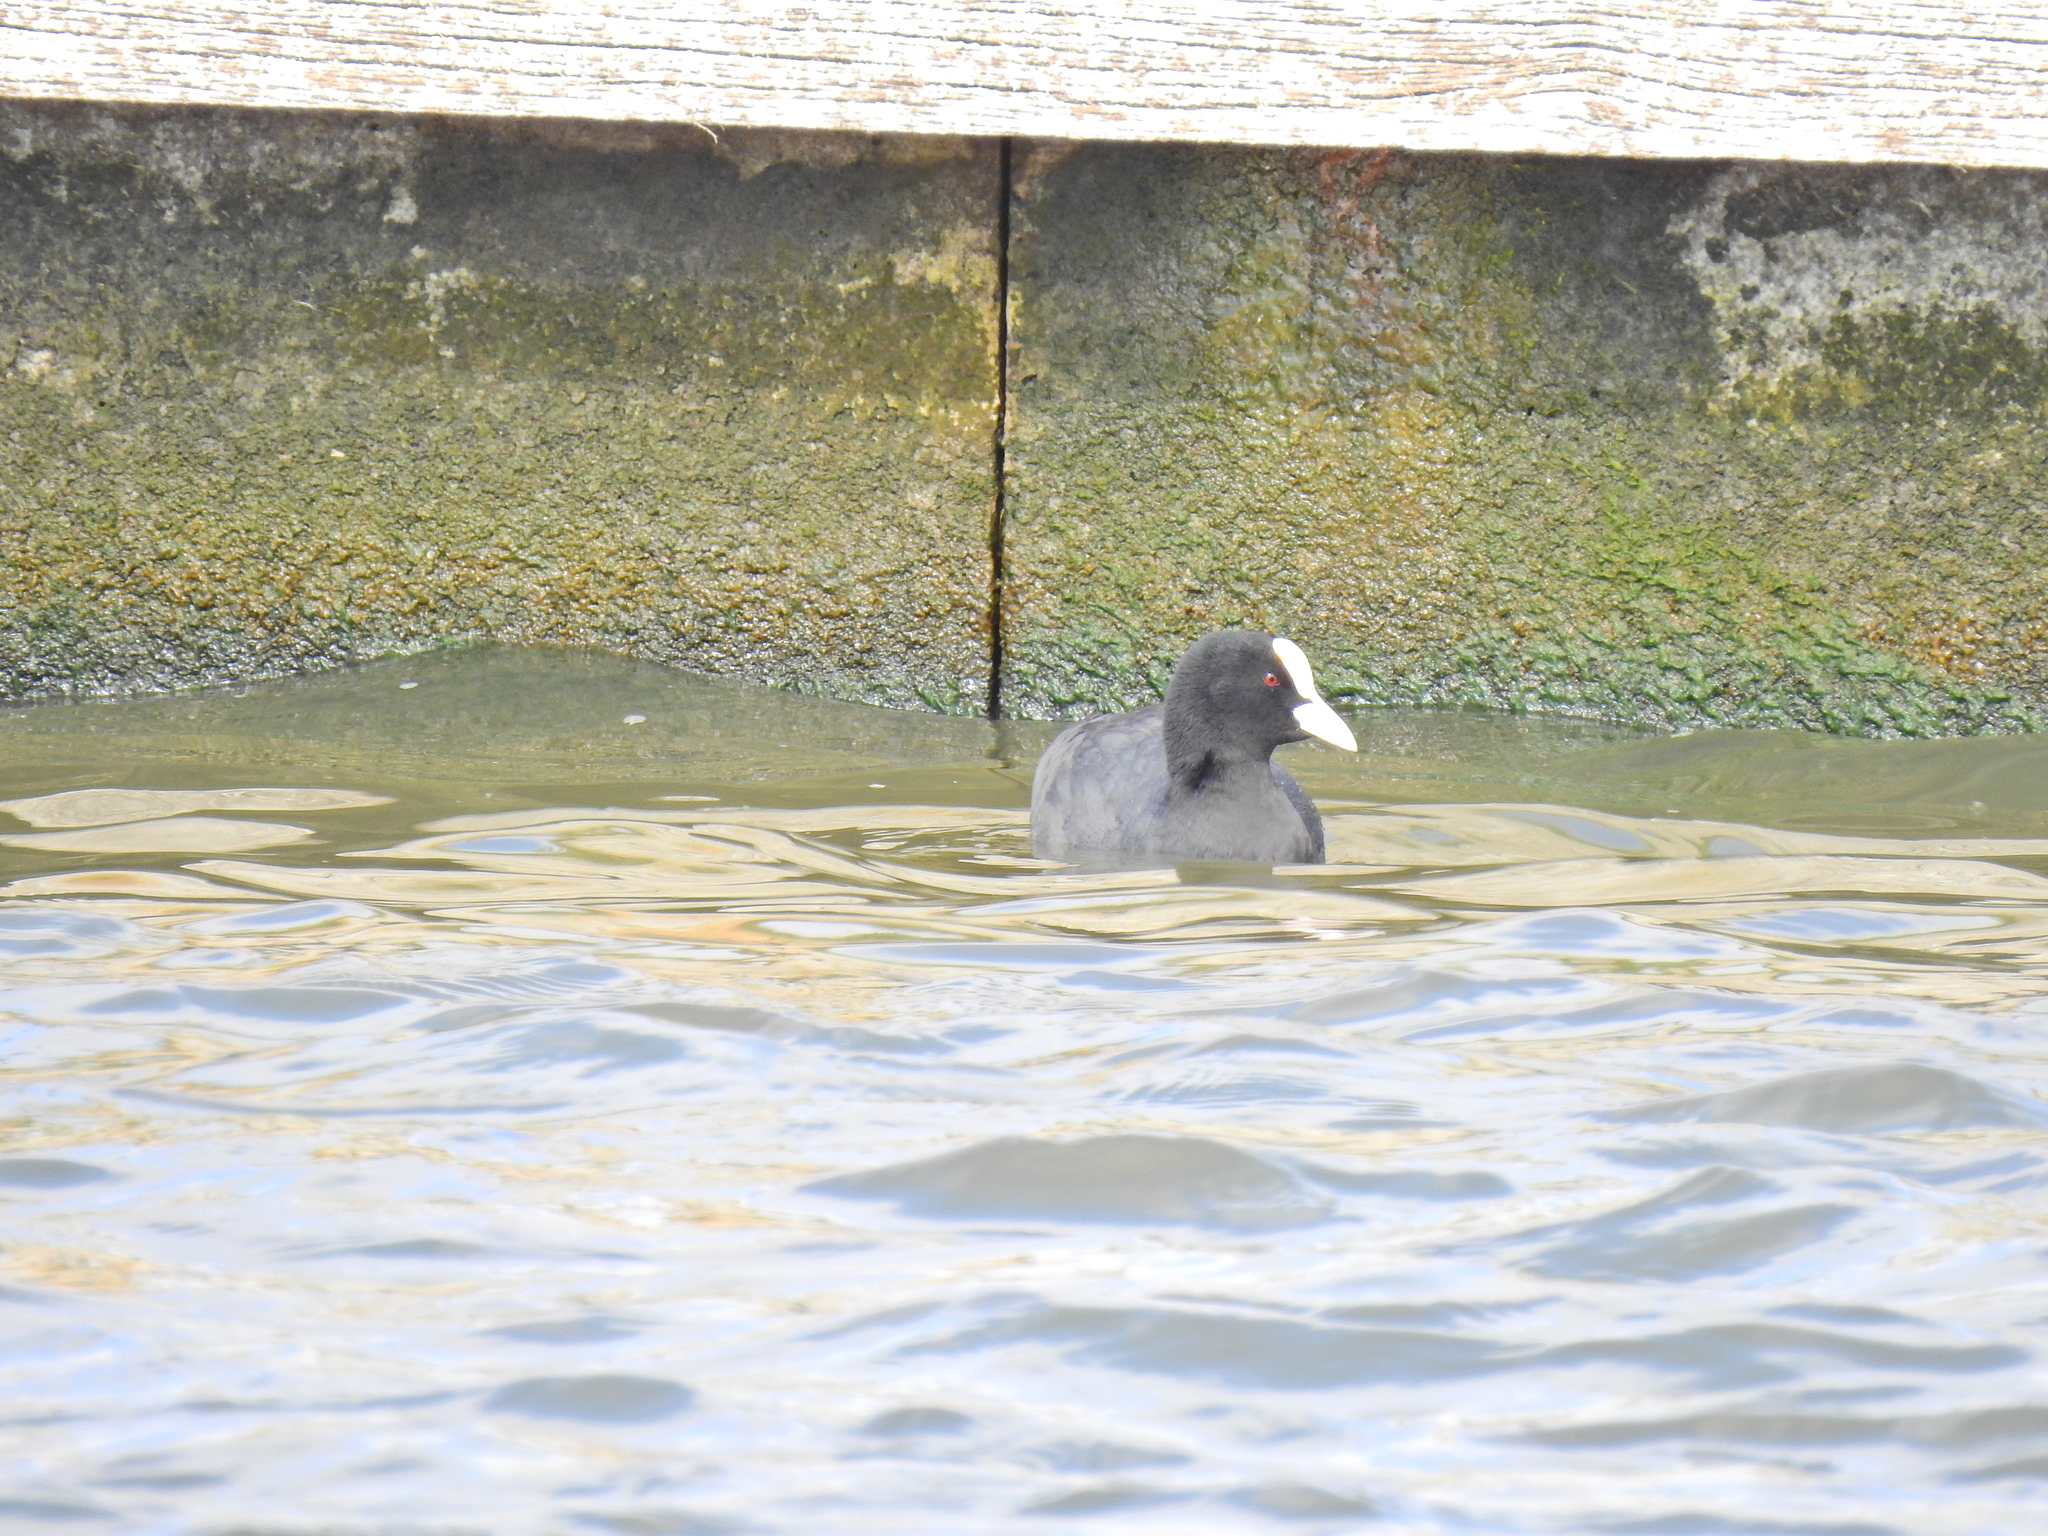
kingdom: Animalia
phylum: Chordata
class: Aves
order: Gruiformes
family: Rallidae
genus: Fulica
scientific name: Fulica atra
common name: Eurasian coot
